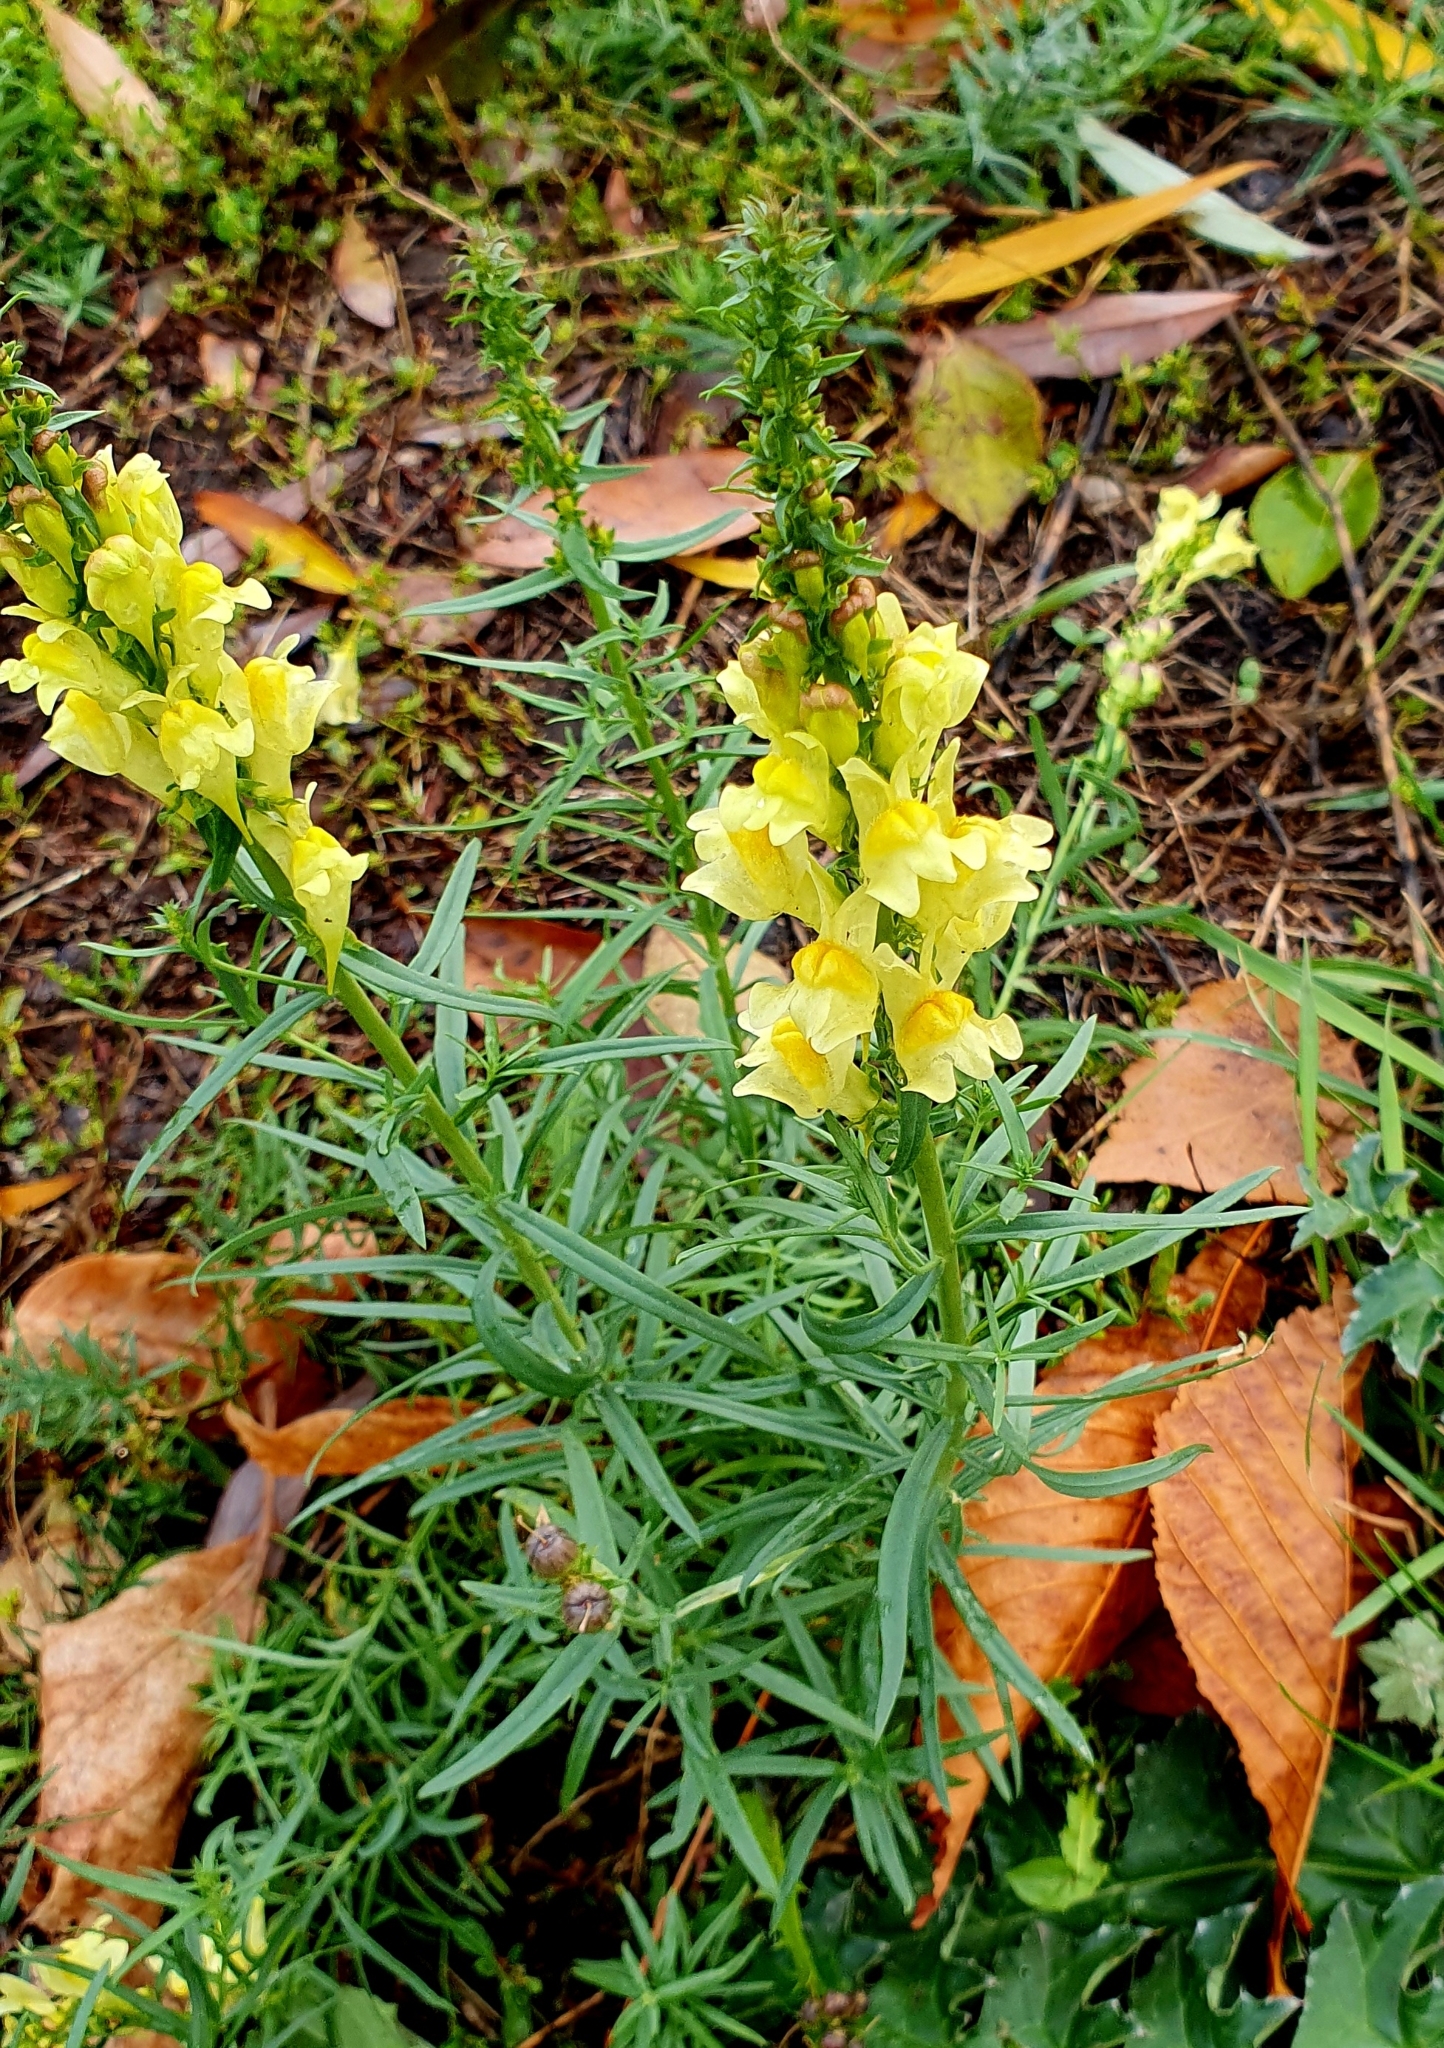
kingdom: Plantae
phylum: Tracheophyta
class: Magnoliopsida
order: Lamiales
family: Plantaginaceae
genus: Linaria
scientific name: Linaria vulgaris
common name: Butter and eggs
